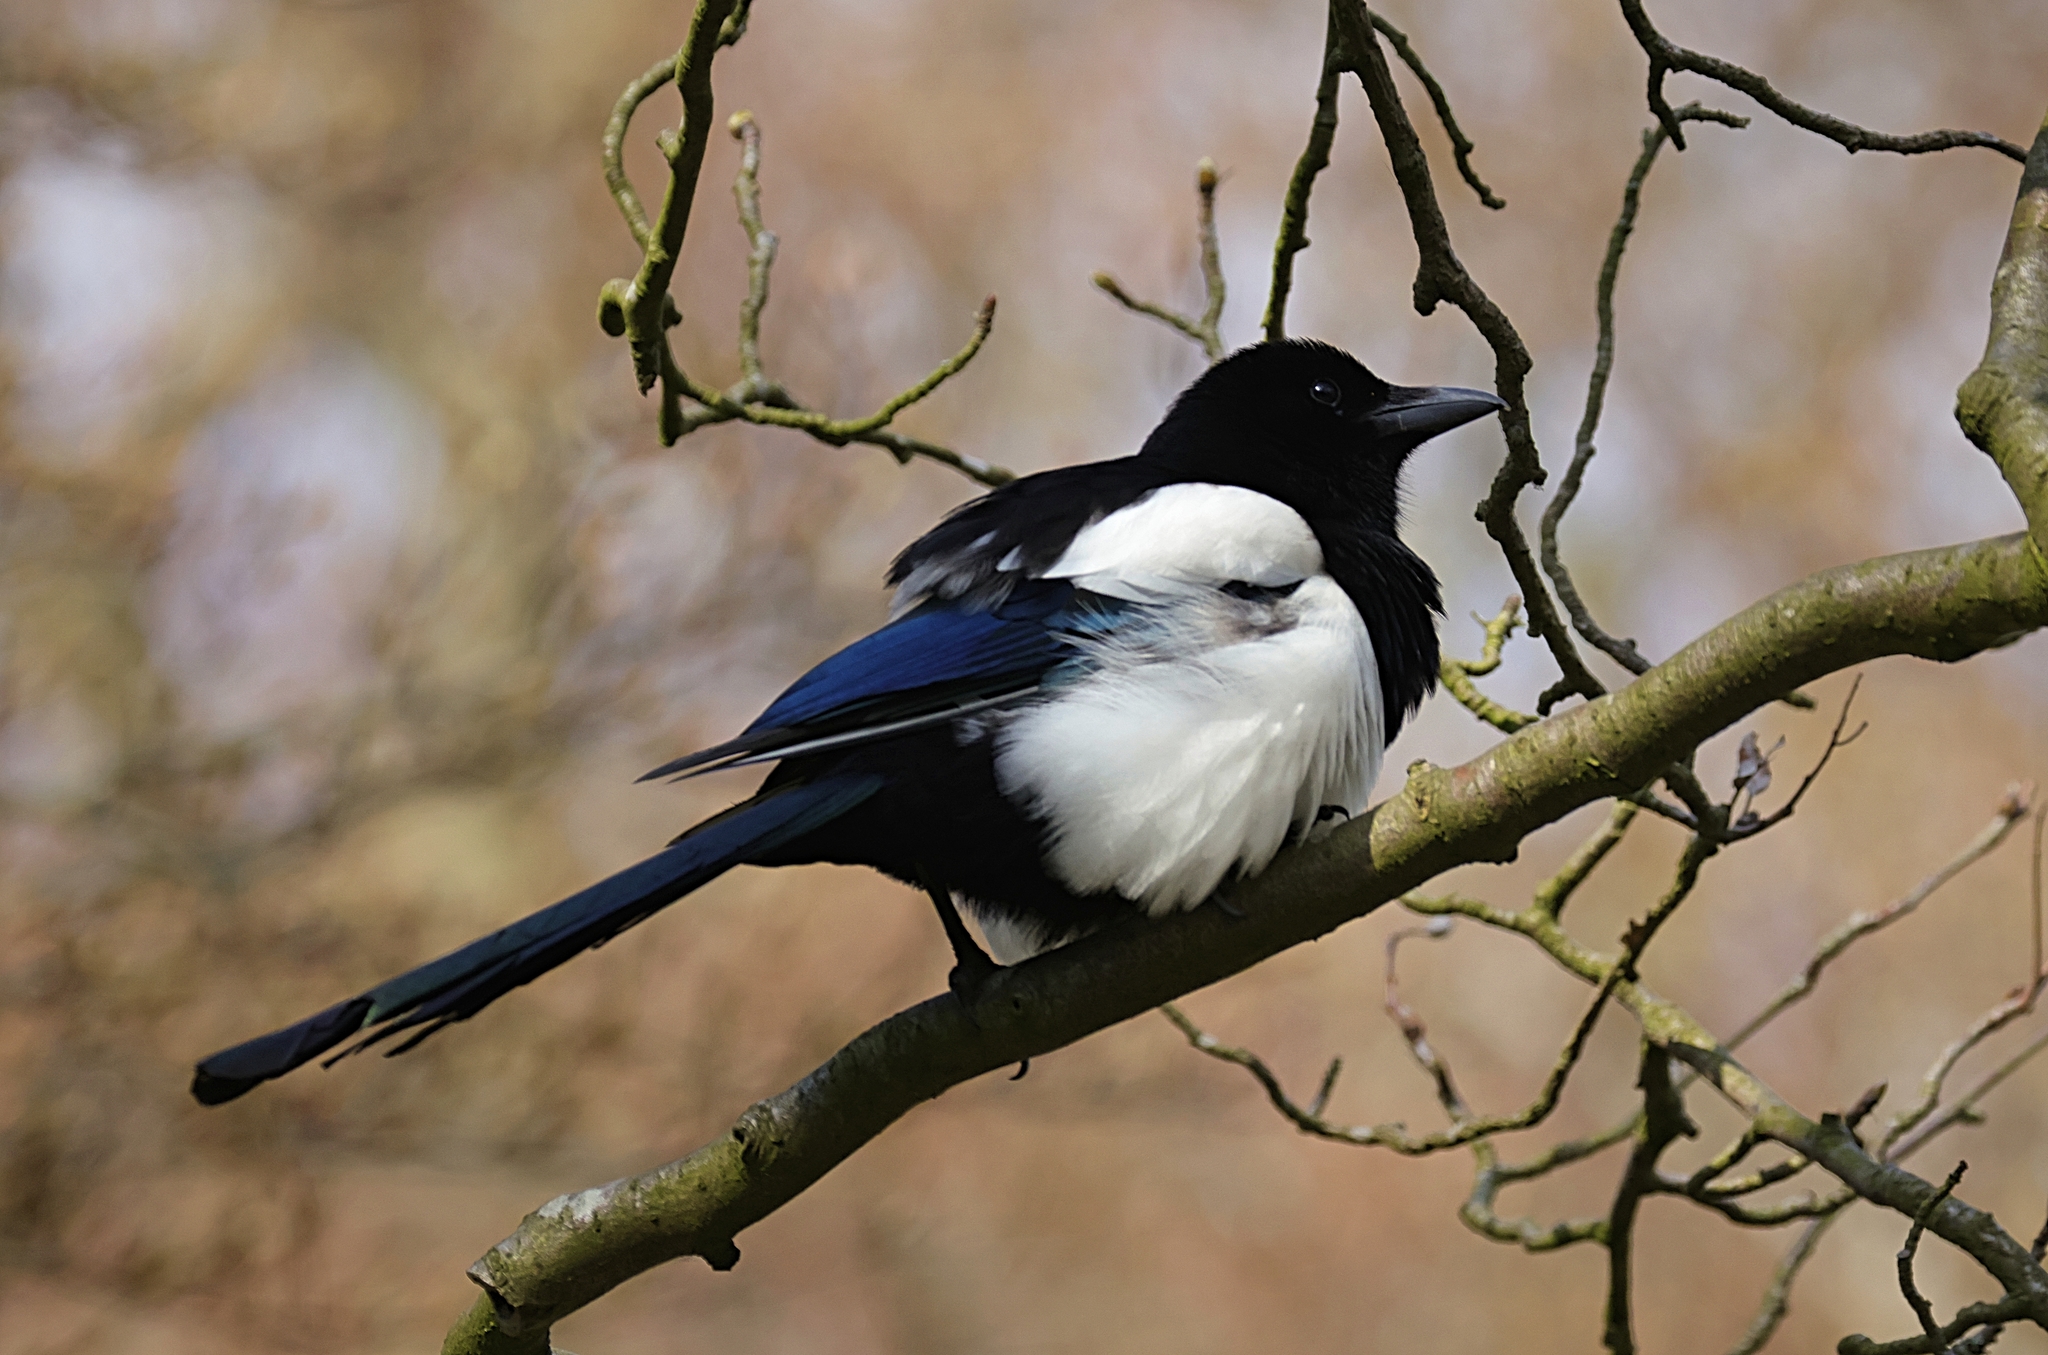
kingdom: Animalia
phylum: Chordata
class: Aves
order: Passeriformes
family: Corvidae
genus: Pica
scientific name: Pica pica
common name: Eurasian magpie
